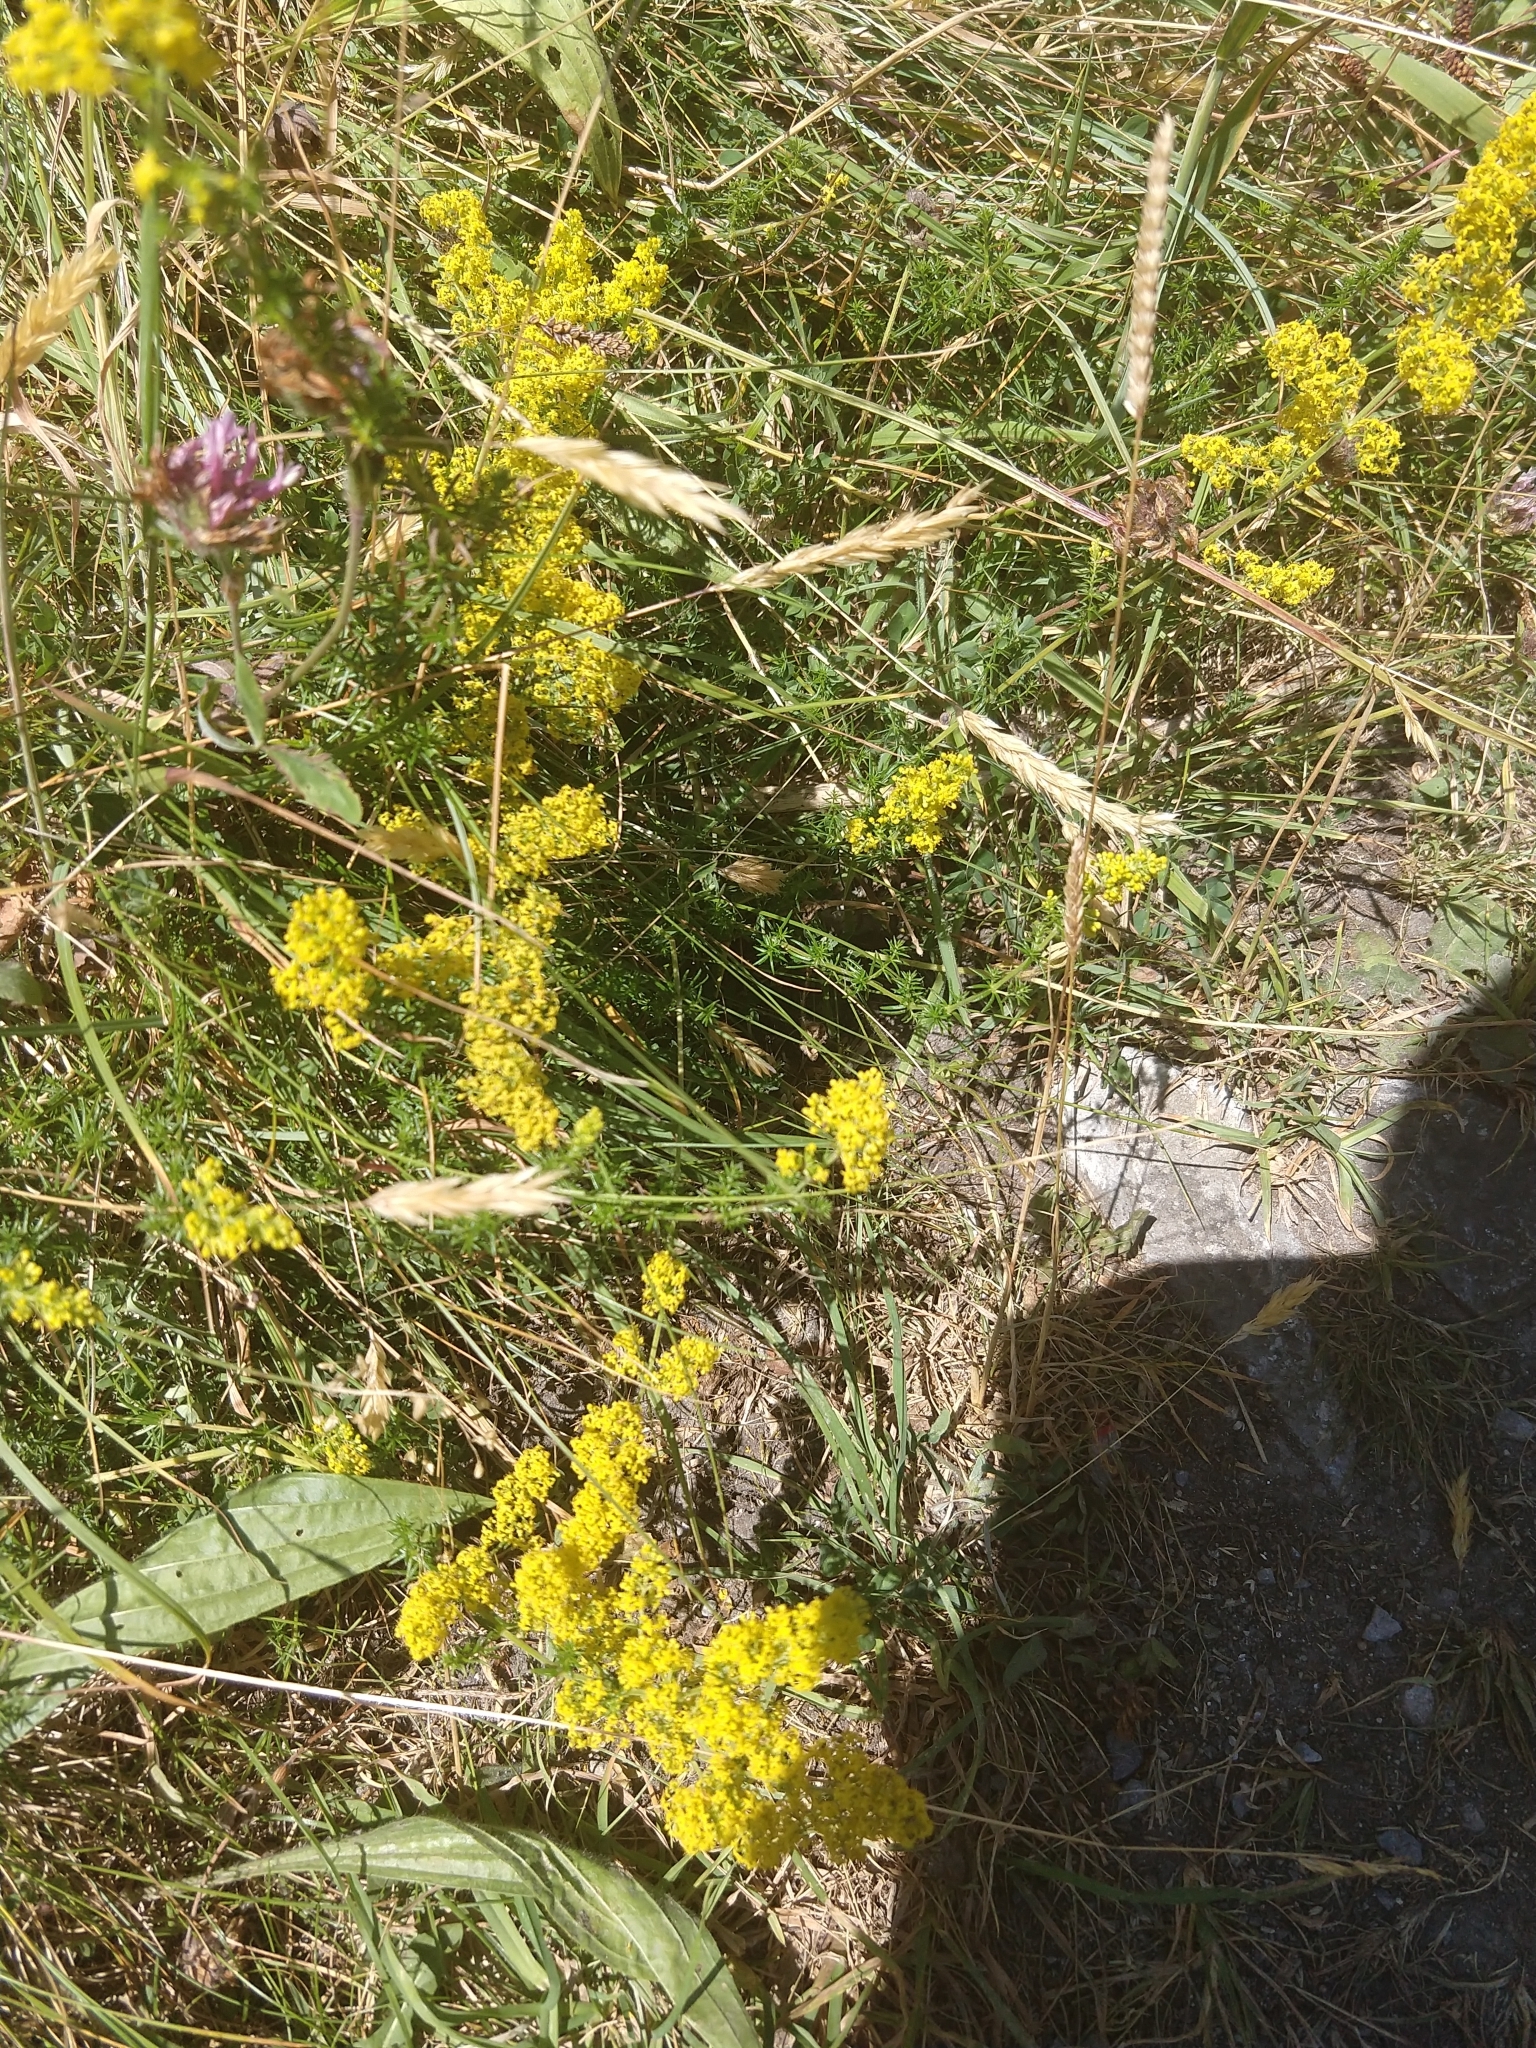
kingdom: Plantae
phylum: Tracheophyta
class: Magnoliopsida
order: Gentianales
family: Rubiaceae
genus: Galium
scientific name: Galium verum
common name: Lady's bedstraw
